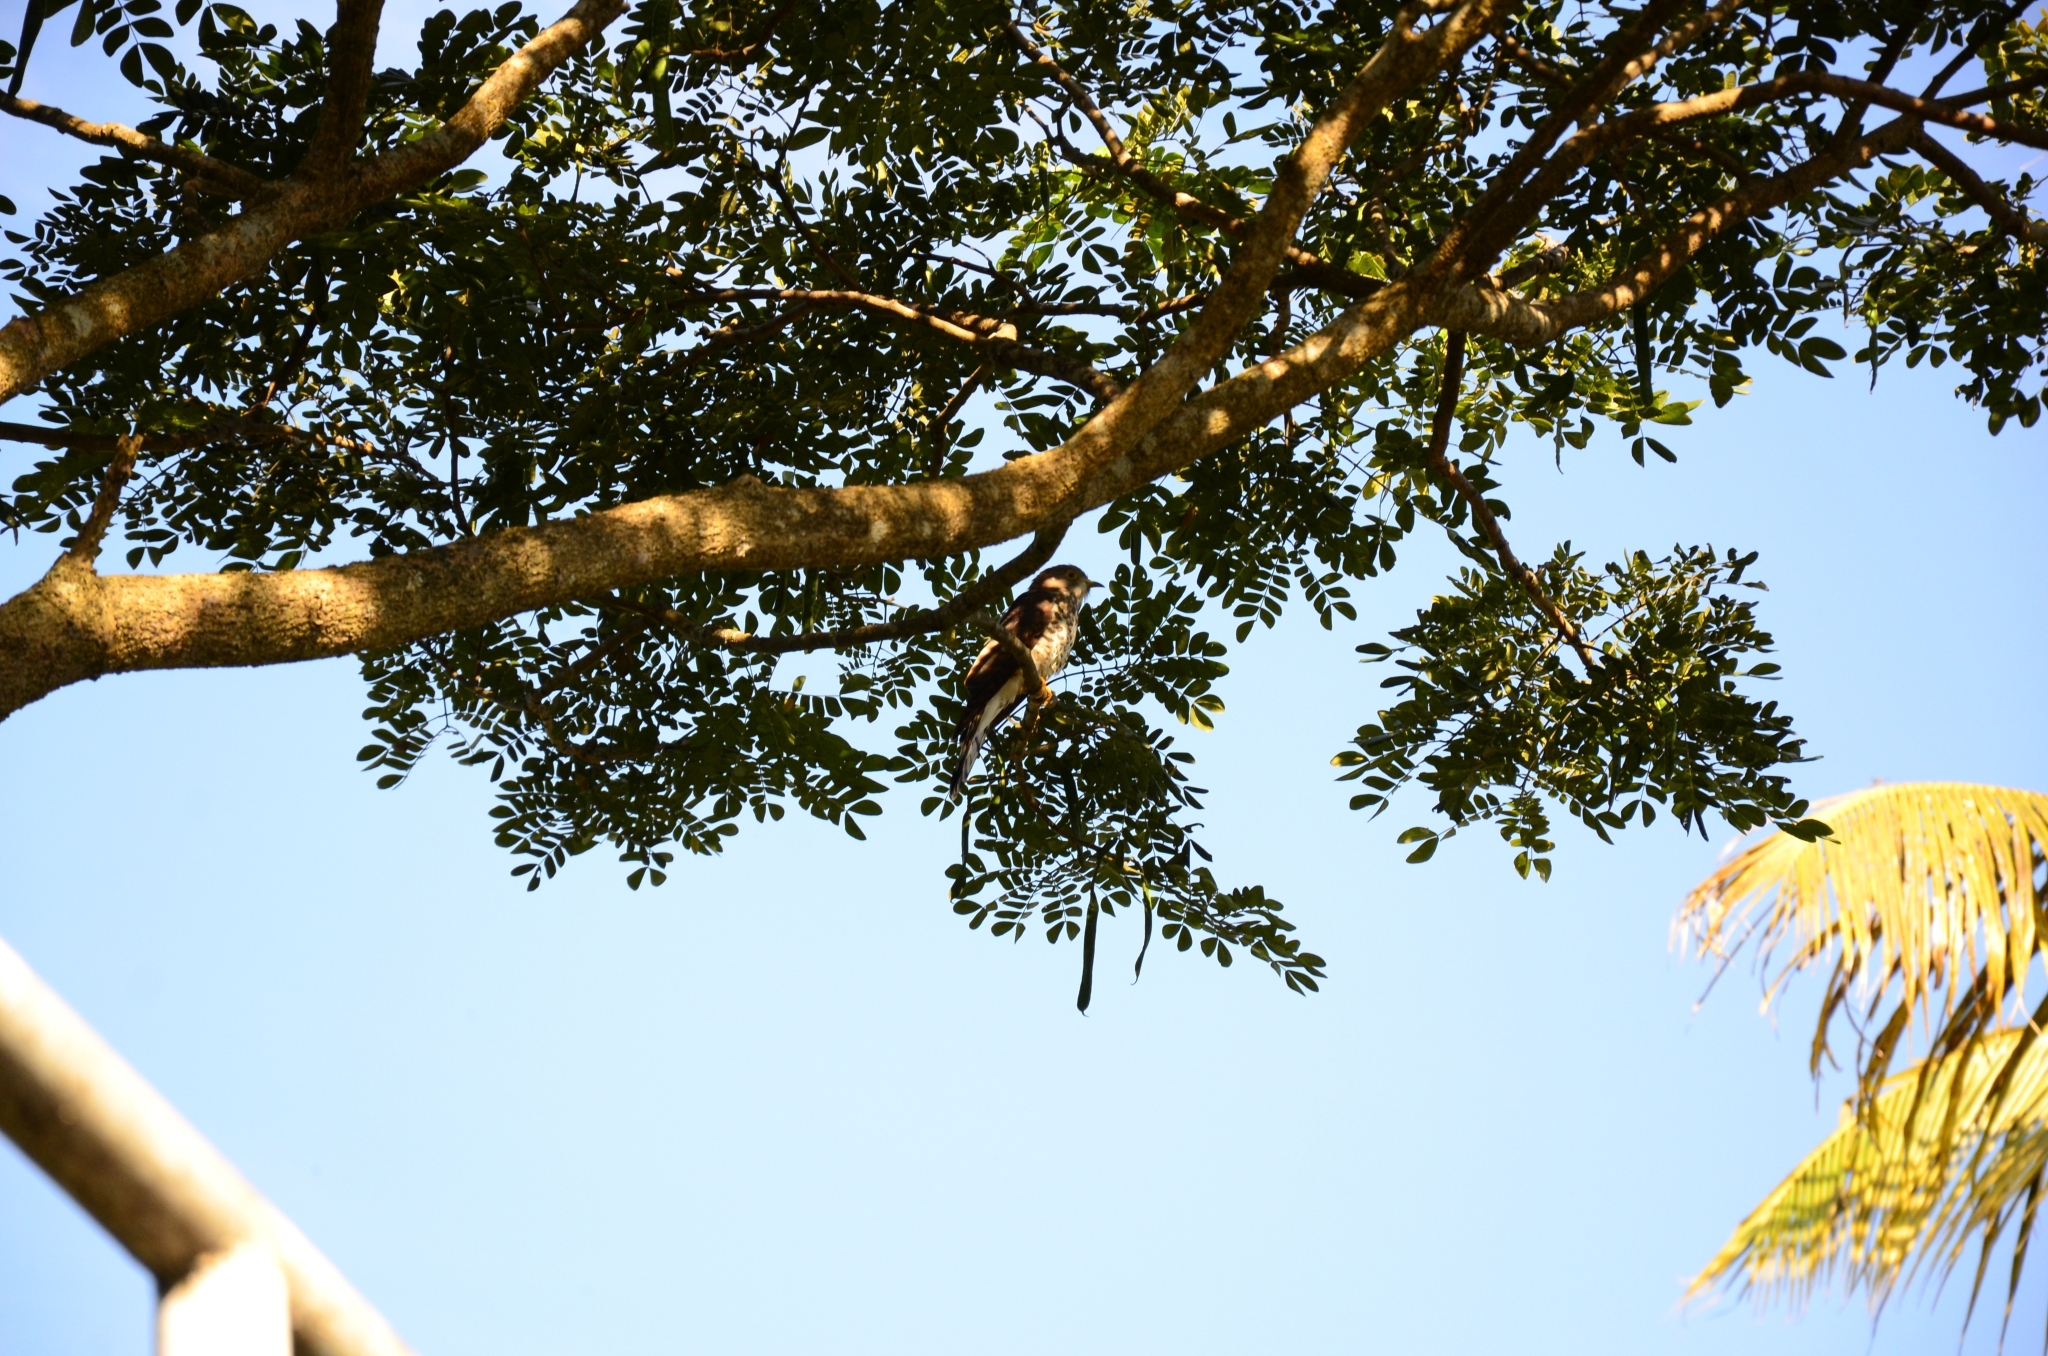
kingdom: Animalia
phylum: Chordata
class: Aves
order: Cuculiformes
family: Cuculidae
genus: Cuculus
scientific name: Cuculus varius
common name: Common hawk cuckoo
